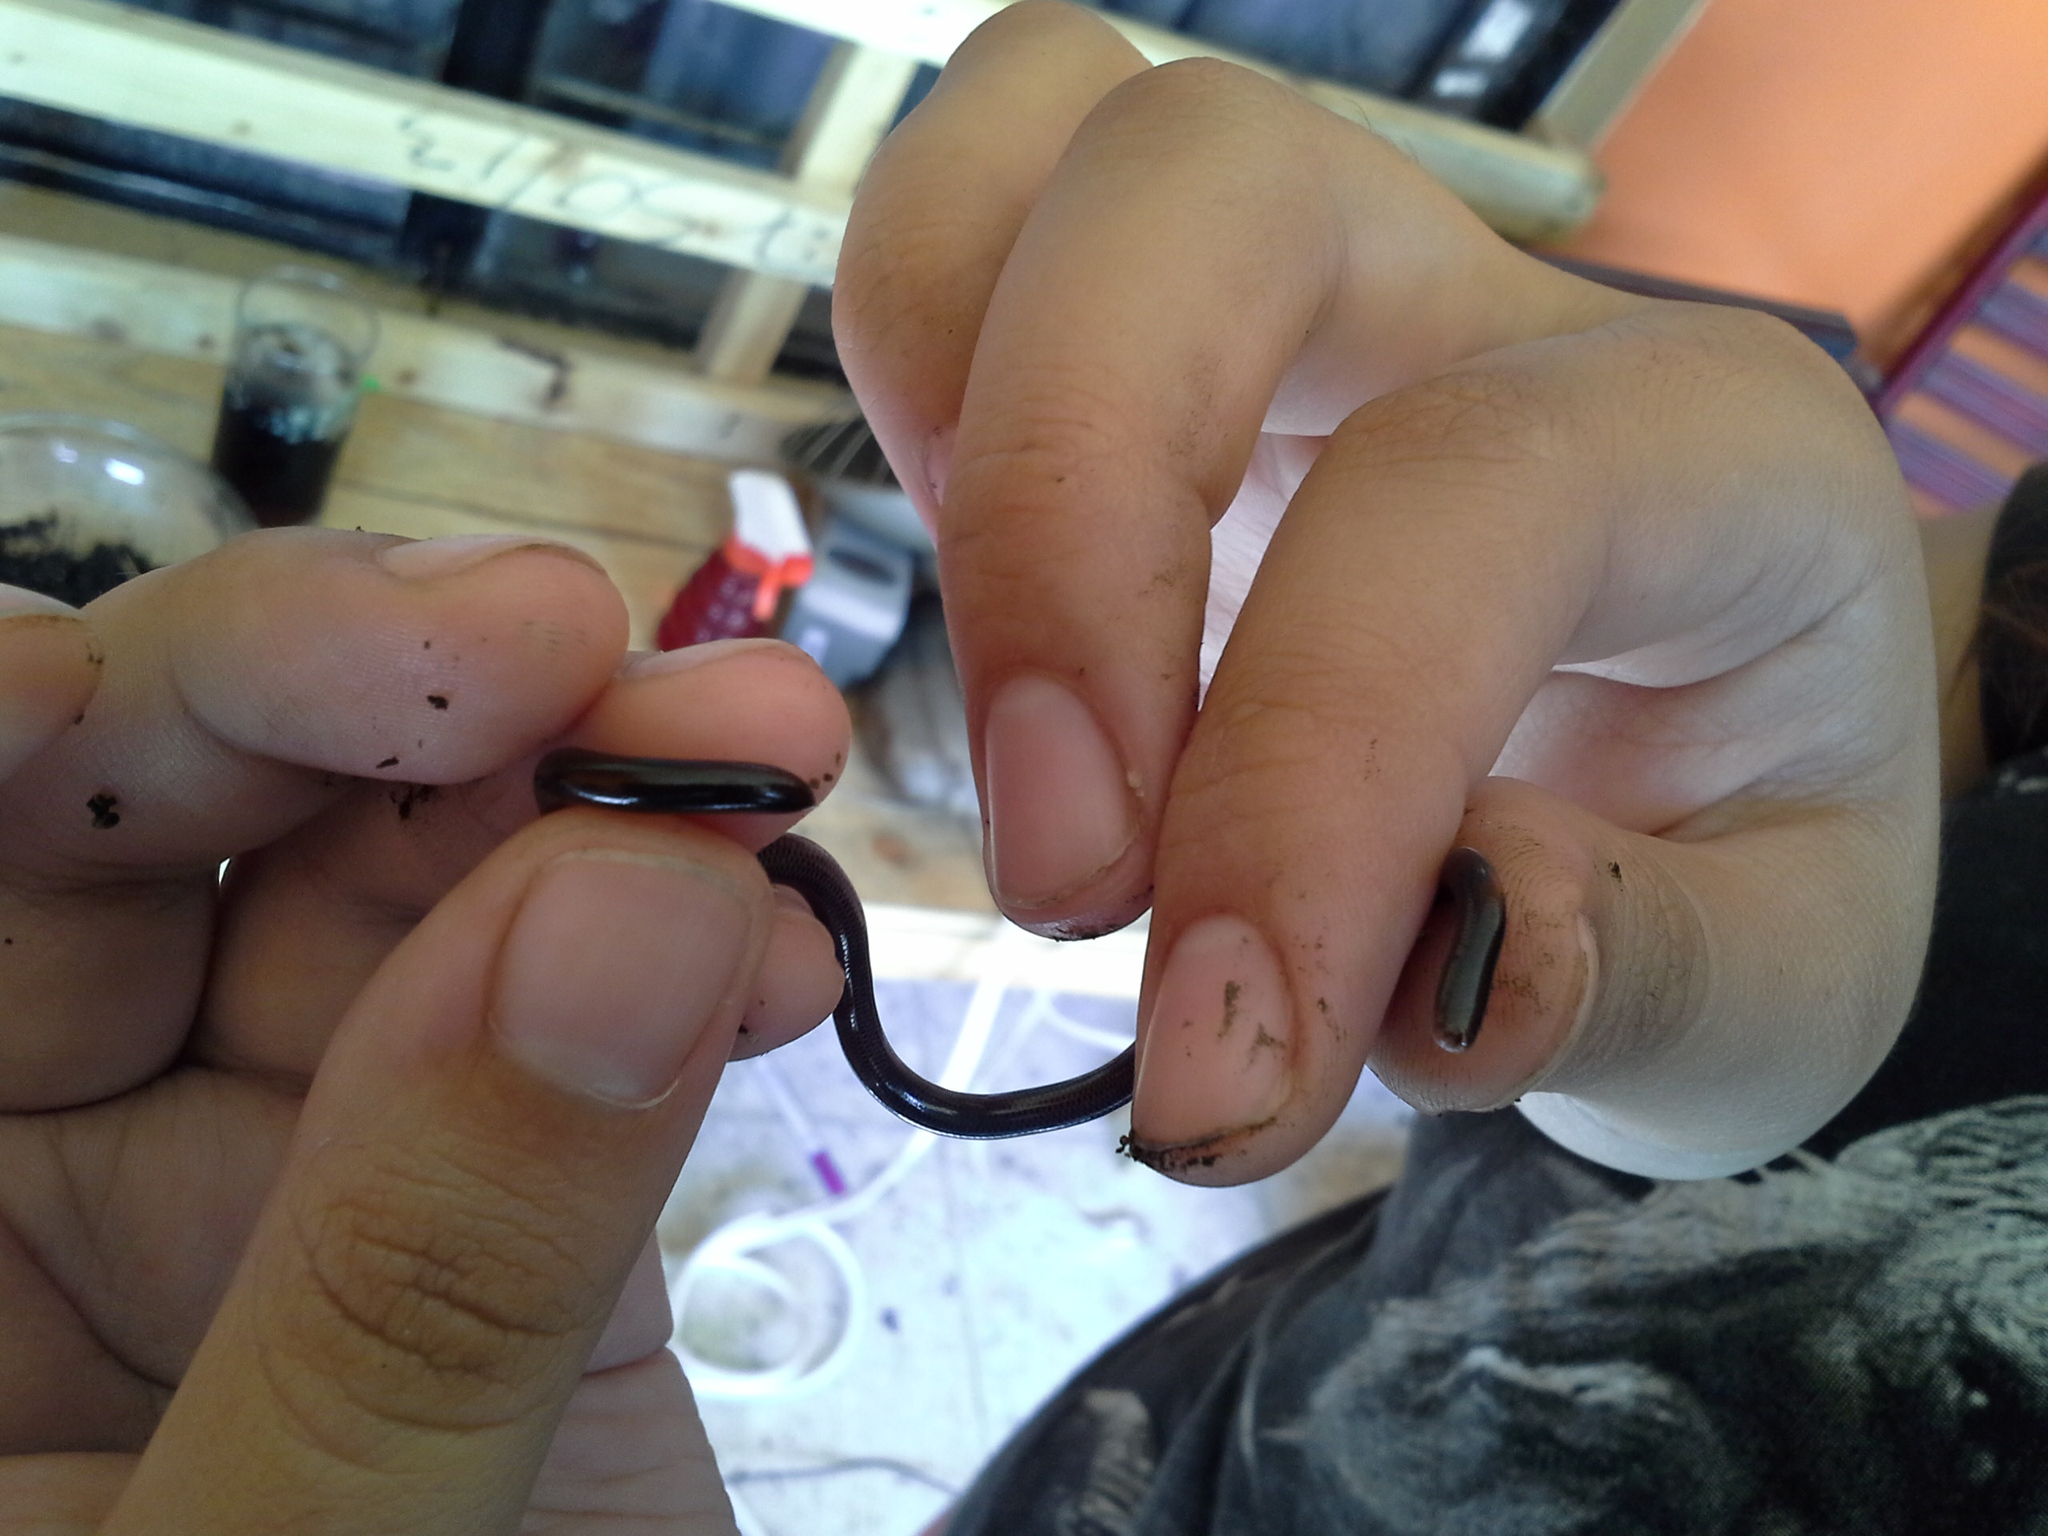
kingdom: Animalia
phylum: Chordata
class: Squamata
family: Typhlopidae
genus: Indotyphlops
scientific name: Indotyphlops braminus
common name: Brahminy blindsnake
